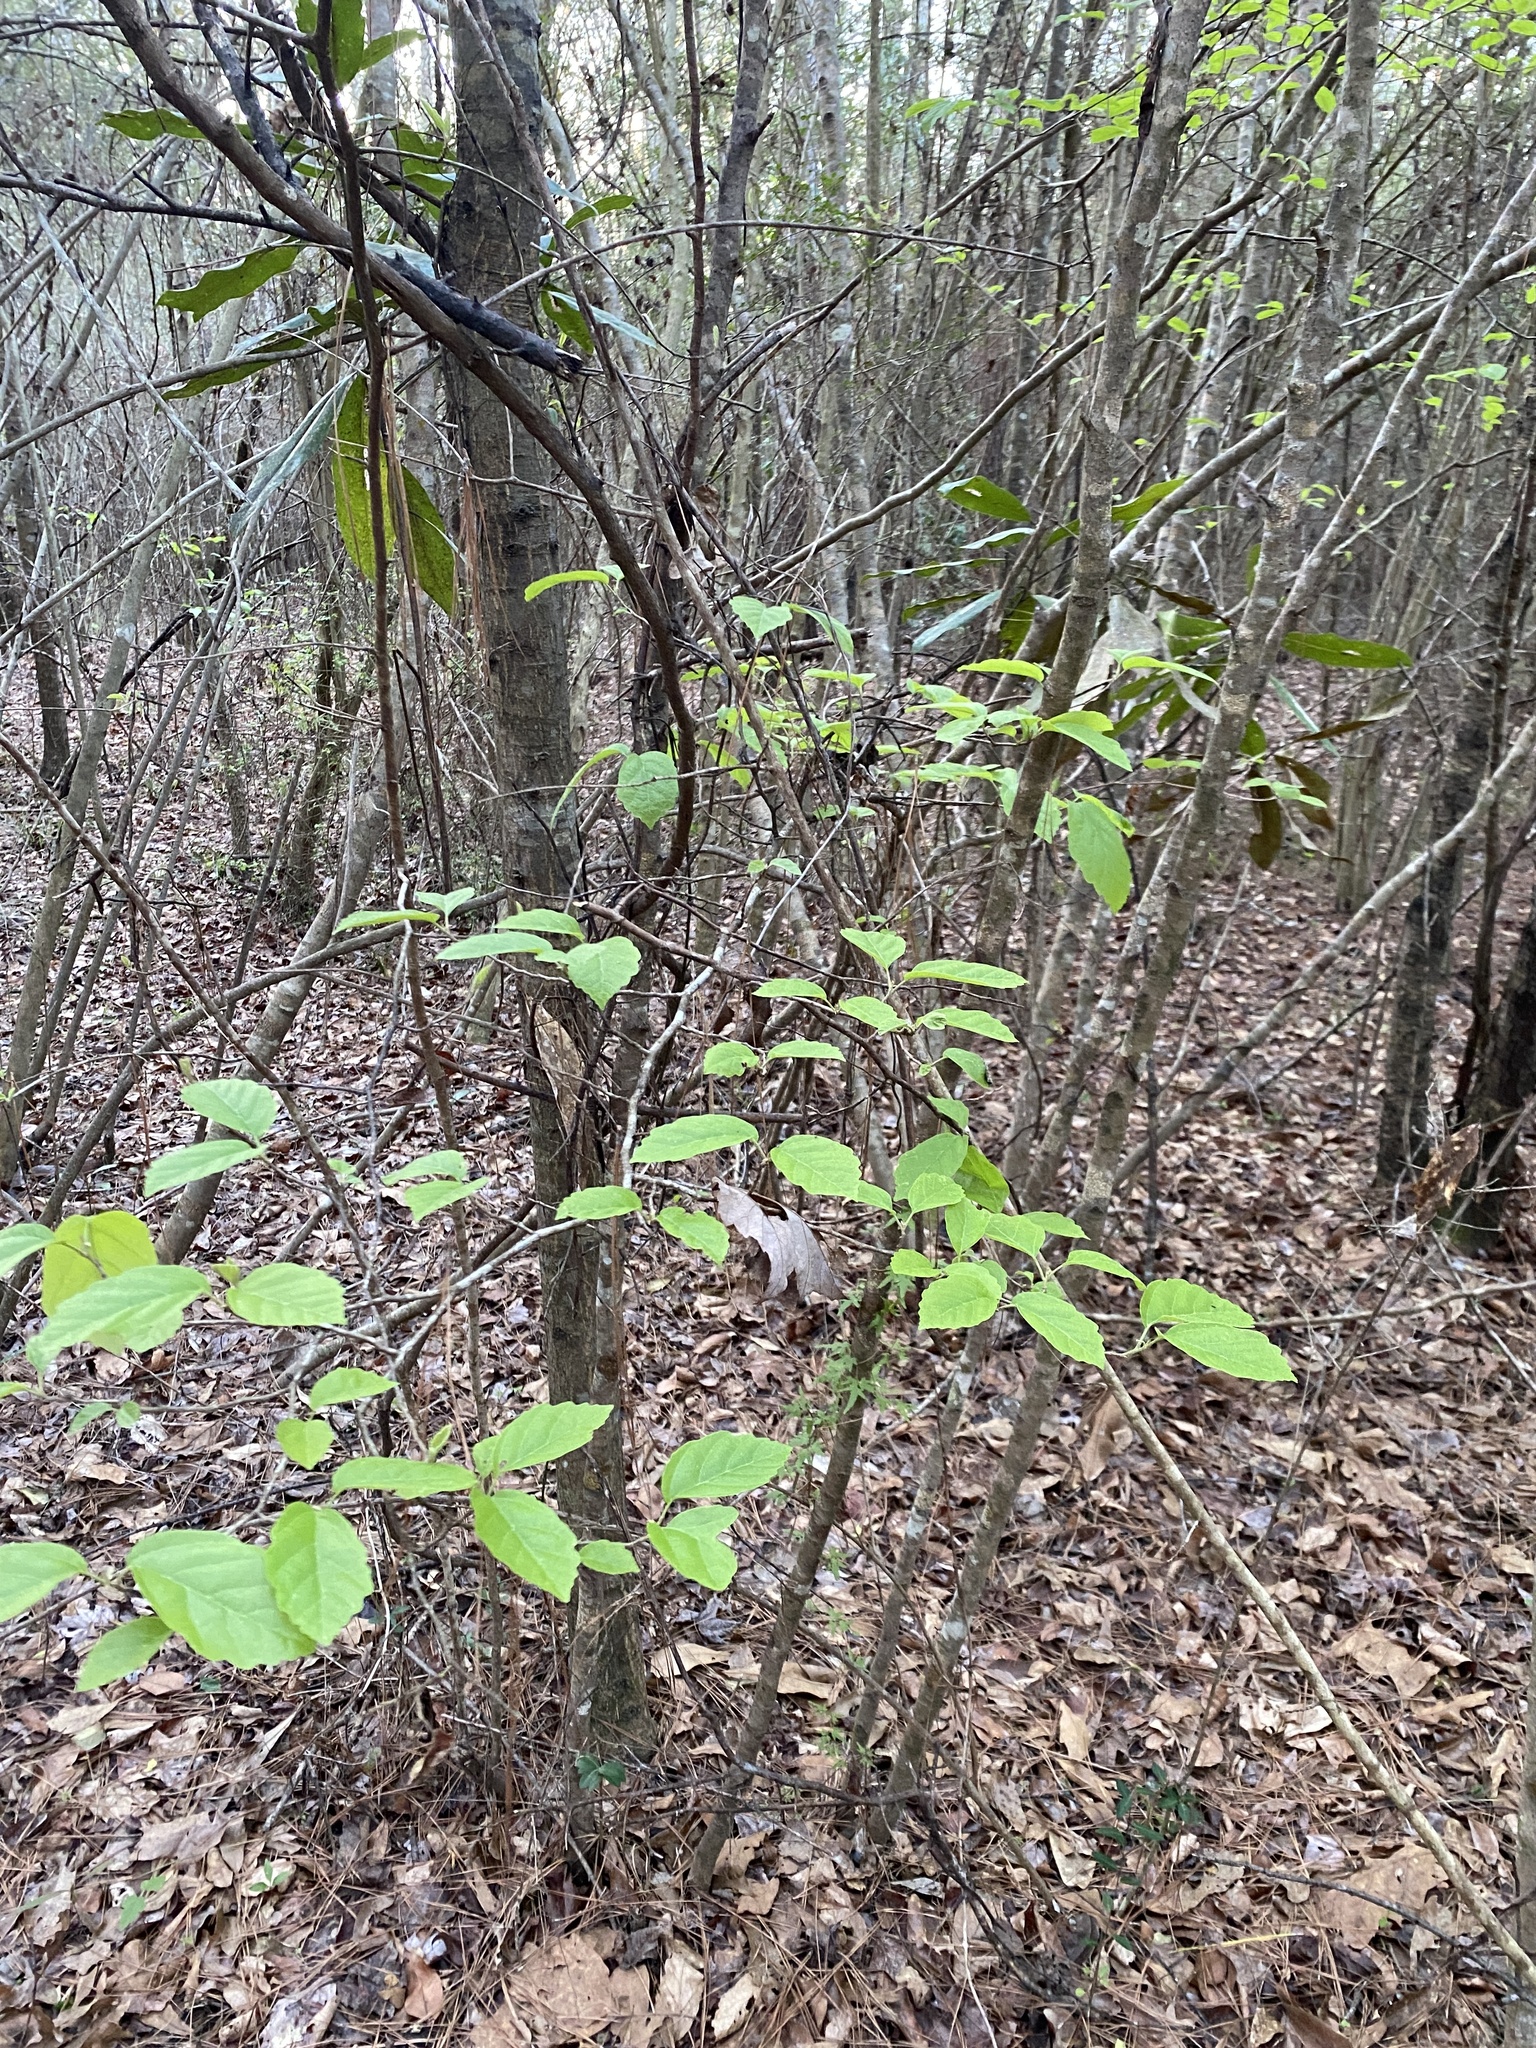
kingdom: Plantae
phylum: Tracheophyta
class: Magnoliopsida
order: Saxifragales
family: Hamamelidaceae
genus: Hamamelis
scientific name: Hamamelis virginiana
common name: Witch-hazel
